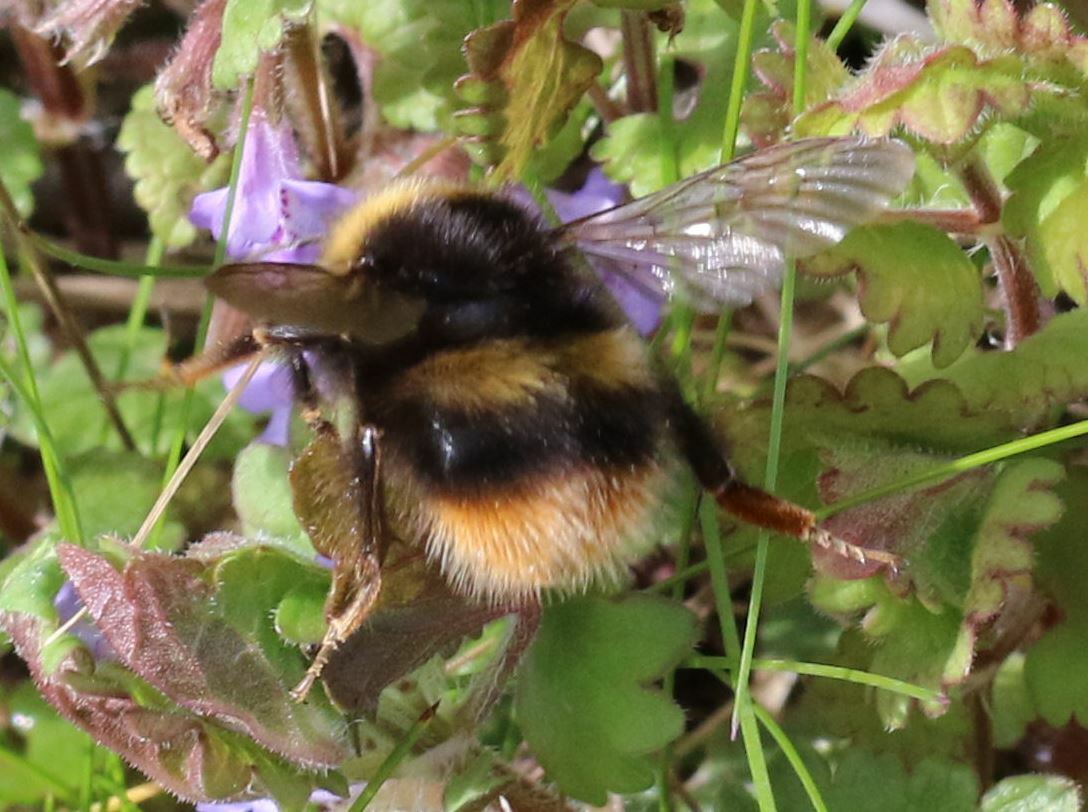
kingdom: Animalia
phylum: Arthropoda
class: Insecta
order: Hymenoptera
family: Apidae
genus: Bombus
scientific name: Bombus pratorum
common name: Early humble-bee
